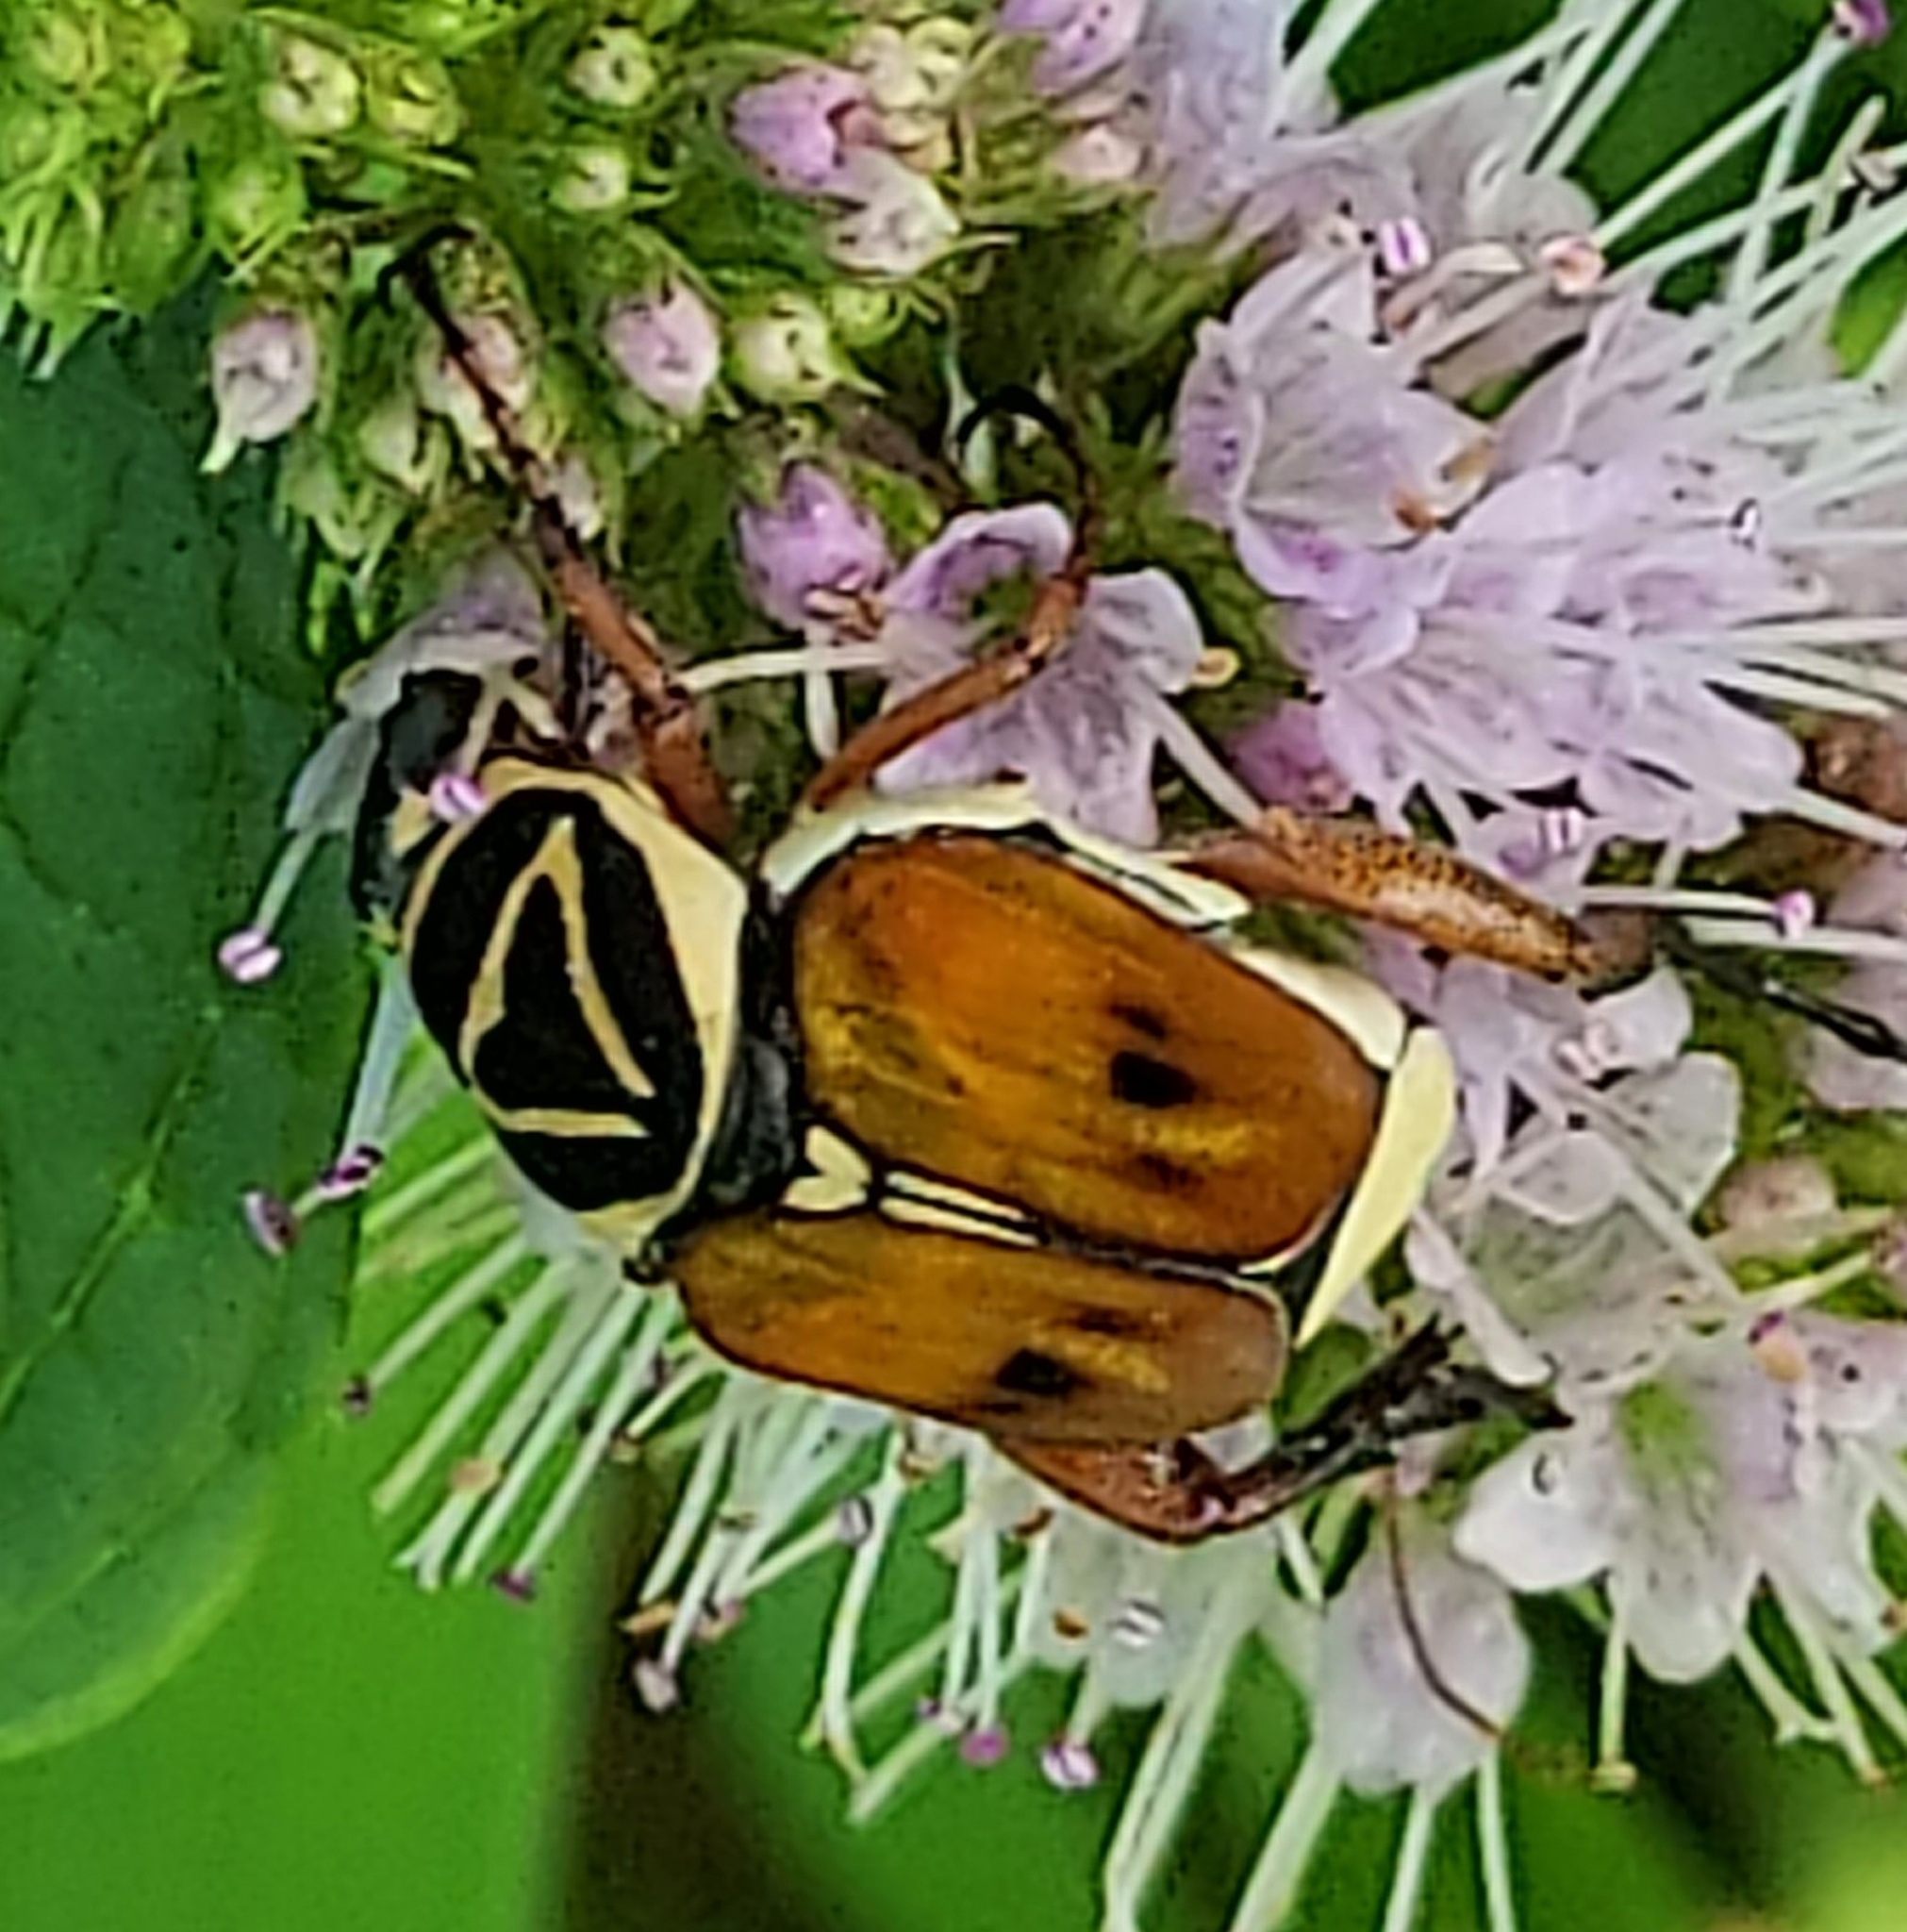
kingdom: Animalia
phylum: Arthropoda
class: Insecta
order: Coleoptera
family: Scarabaeidae
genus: Trigonopeltastes
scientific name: Trigonopeltastes delta
